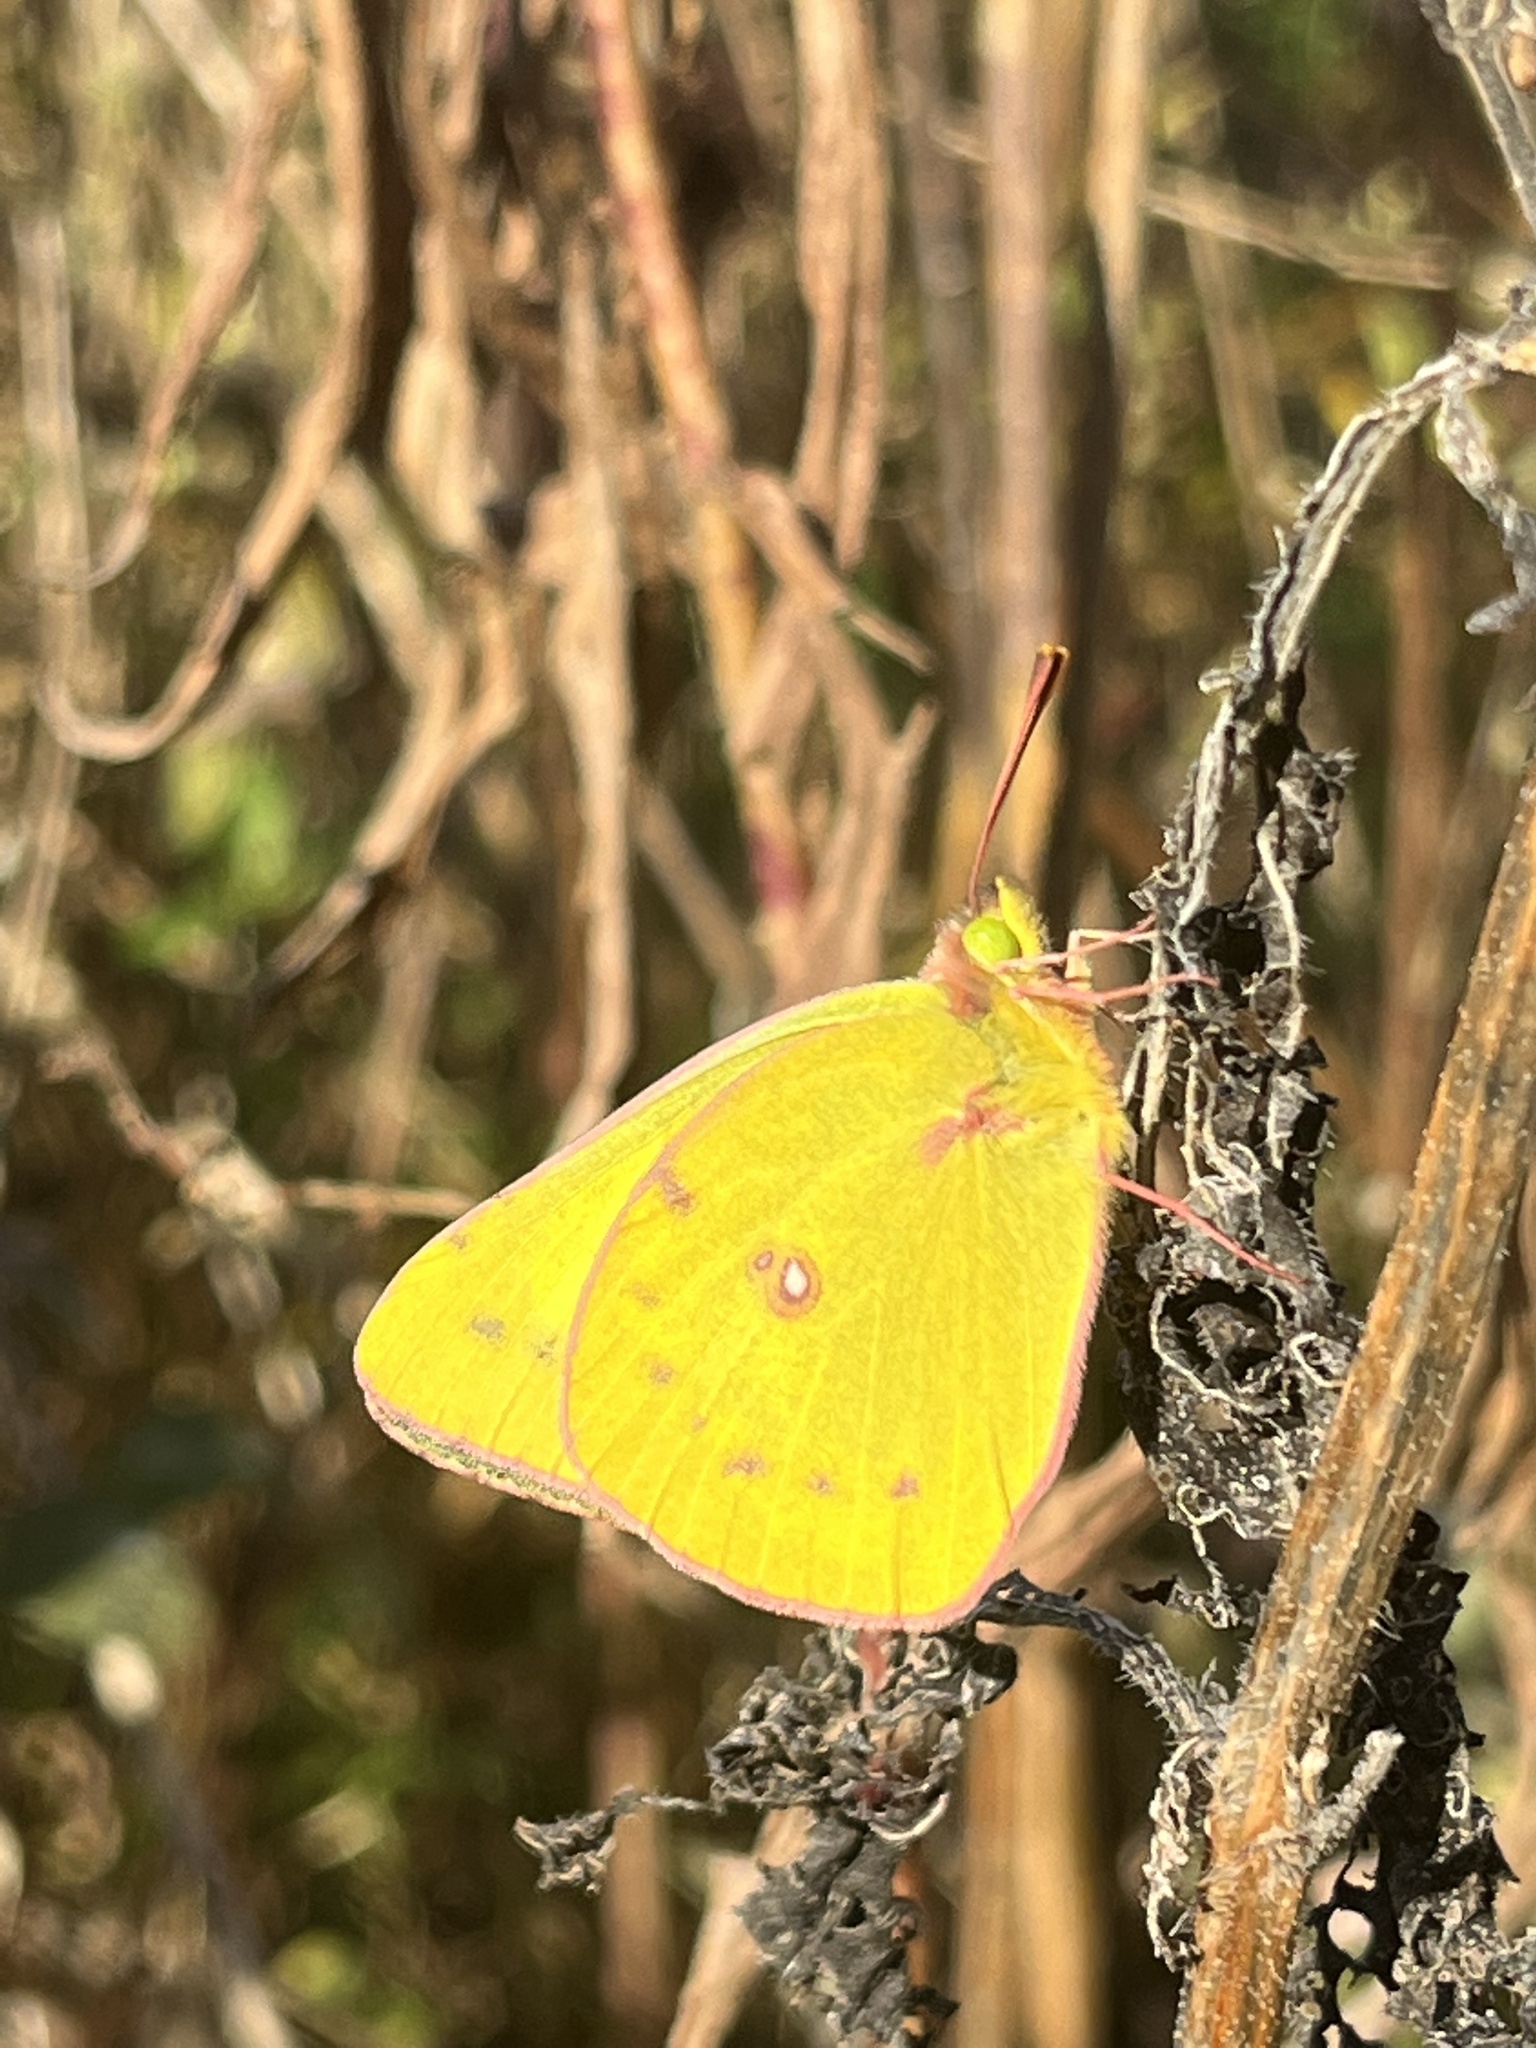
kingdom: Animalia
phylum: Arthropoda
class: Insecta
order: Lepidoptera
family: Pieridae
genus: Colias
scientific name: Colias eurytheme
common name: Alfalfa butterfly
